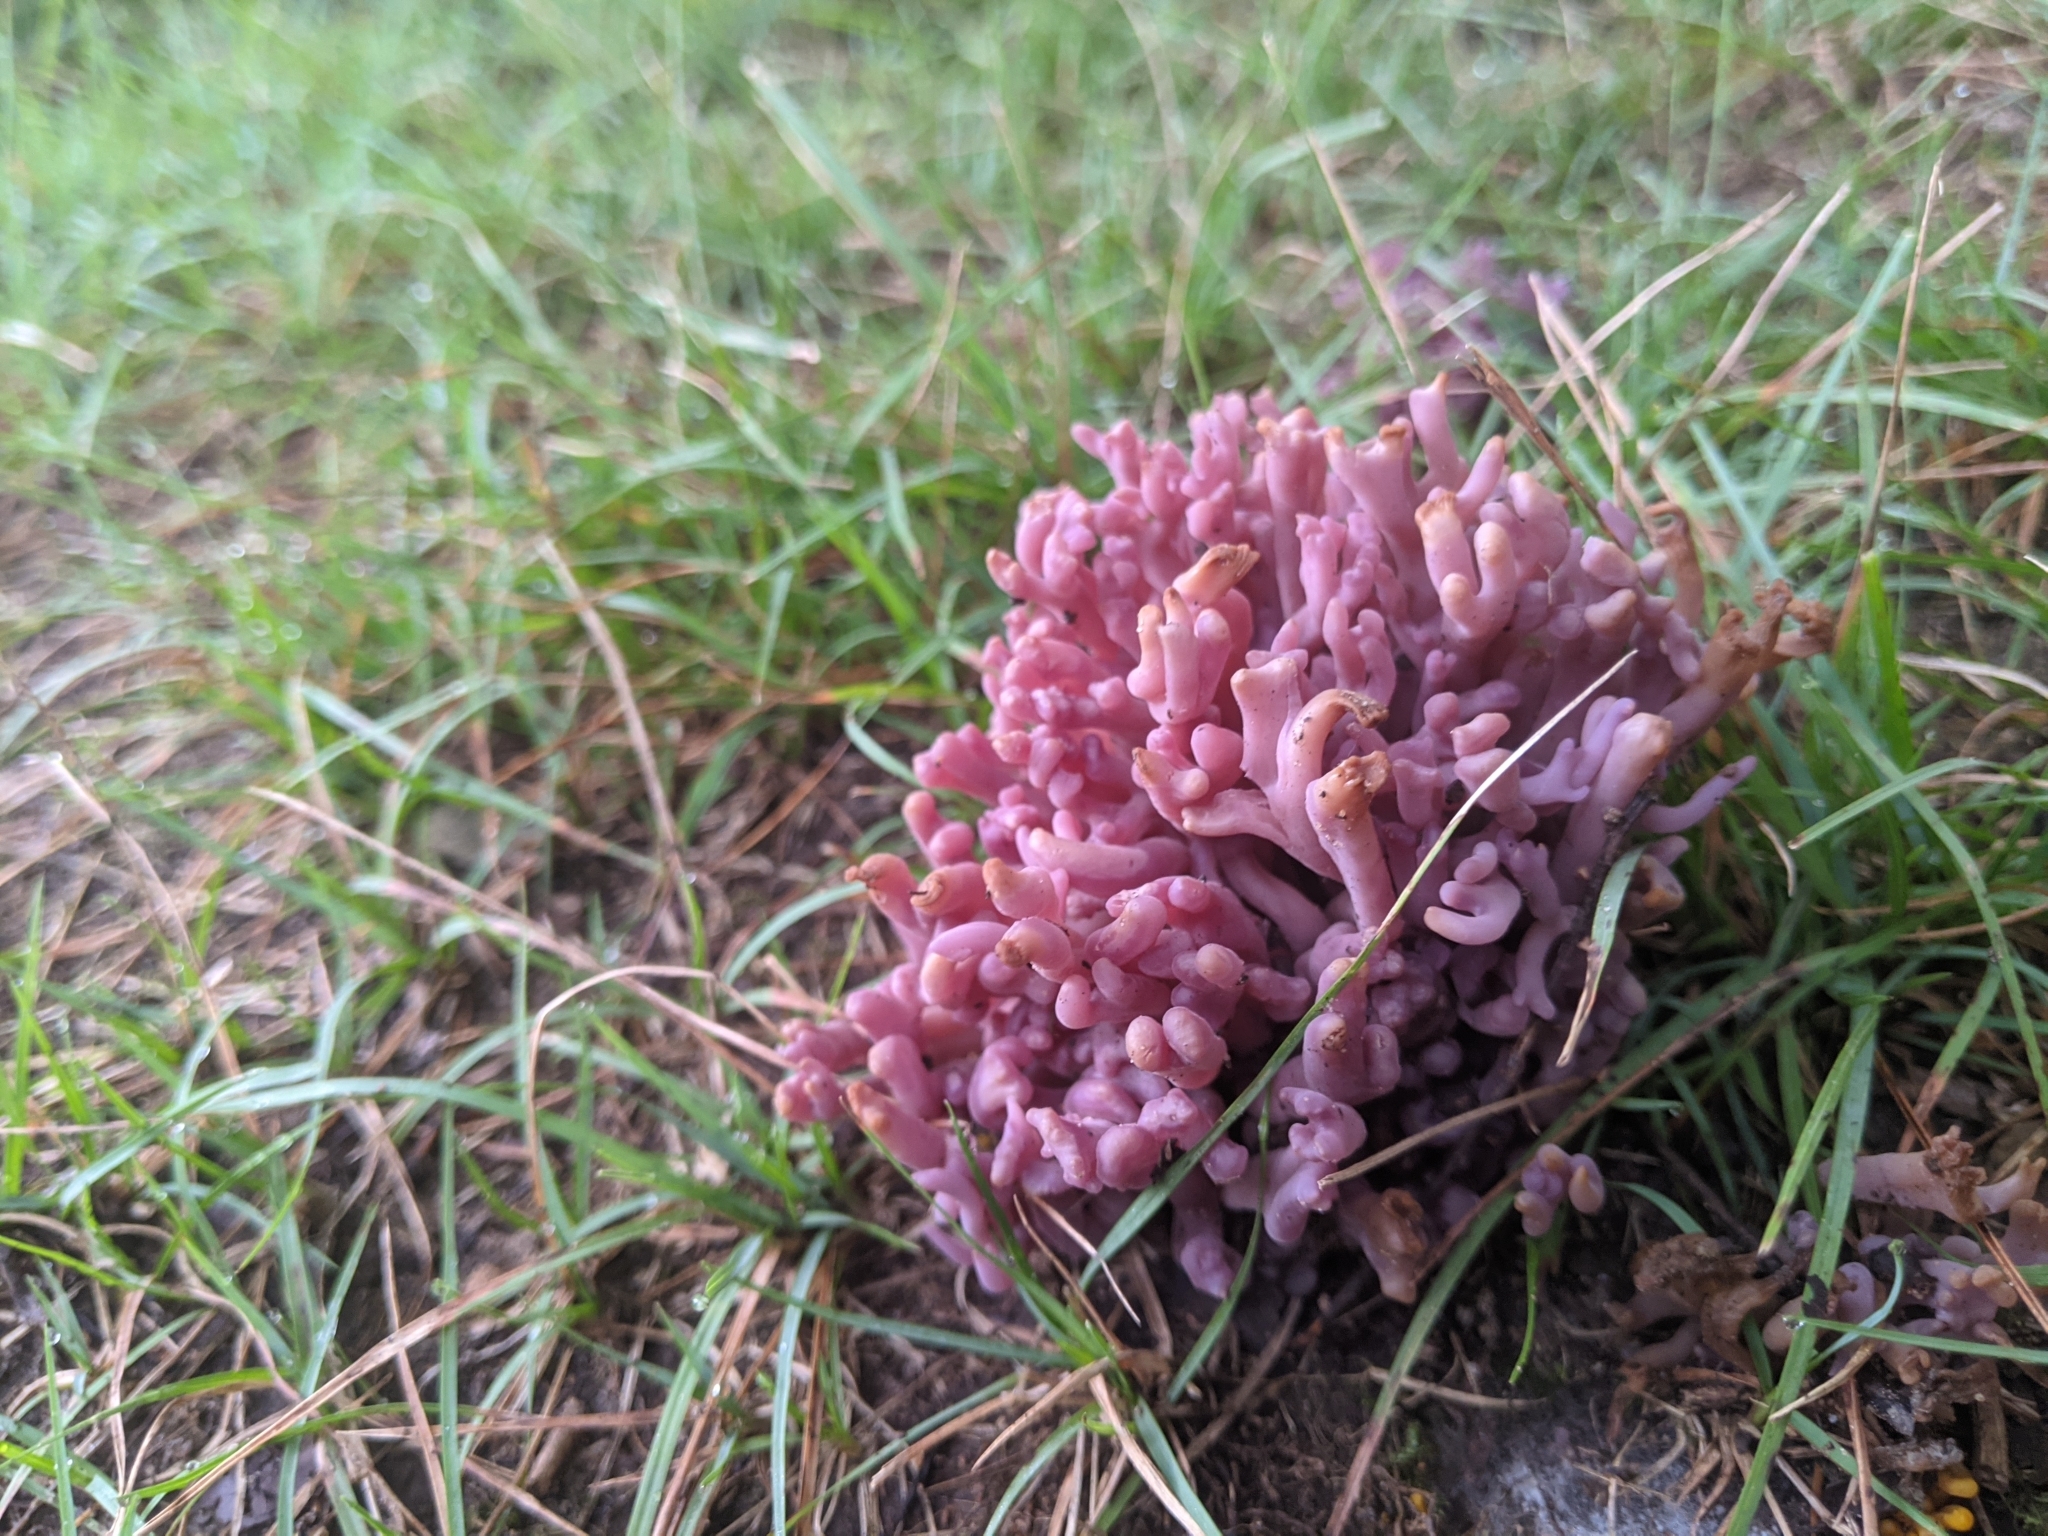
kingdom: Fungi
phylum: Basidiomycota
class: Agaricomycetes
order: Agaricales
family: Clavariaceae
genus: Clavaria
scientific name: Clavaria zollingeri
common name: Violet coral
